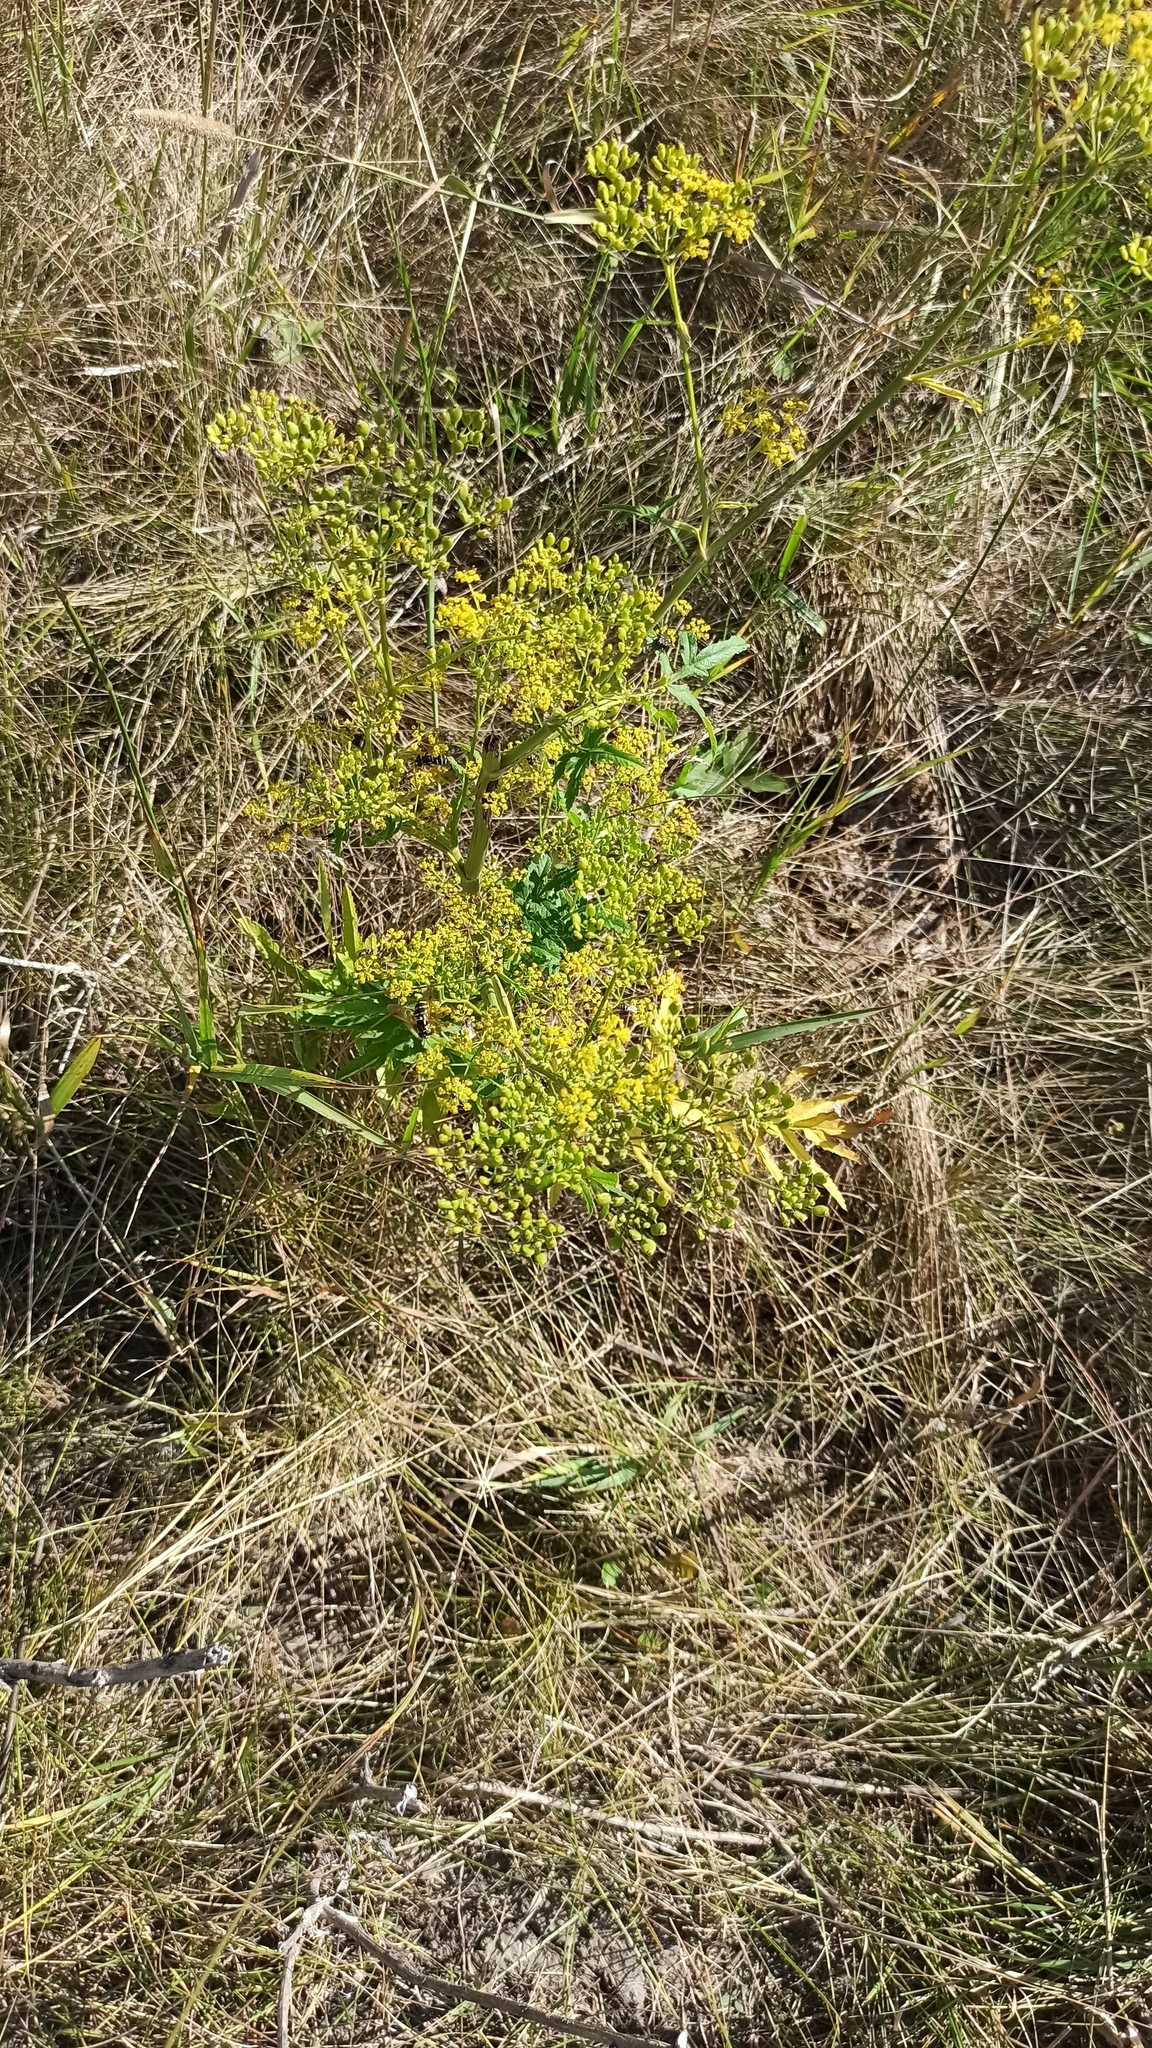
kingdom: Plantae
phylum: Tracheophyta
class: Magnoliopsida
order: Apiales
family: Apiaceae
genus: Pastinaca
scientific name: Pastinaca sativa
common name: Wild parsnip
